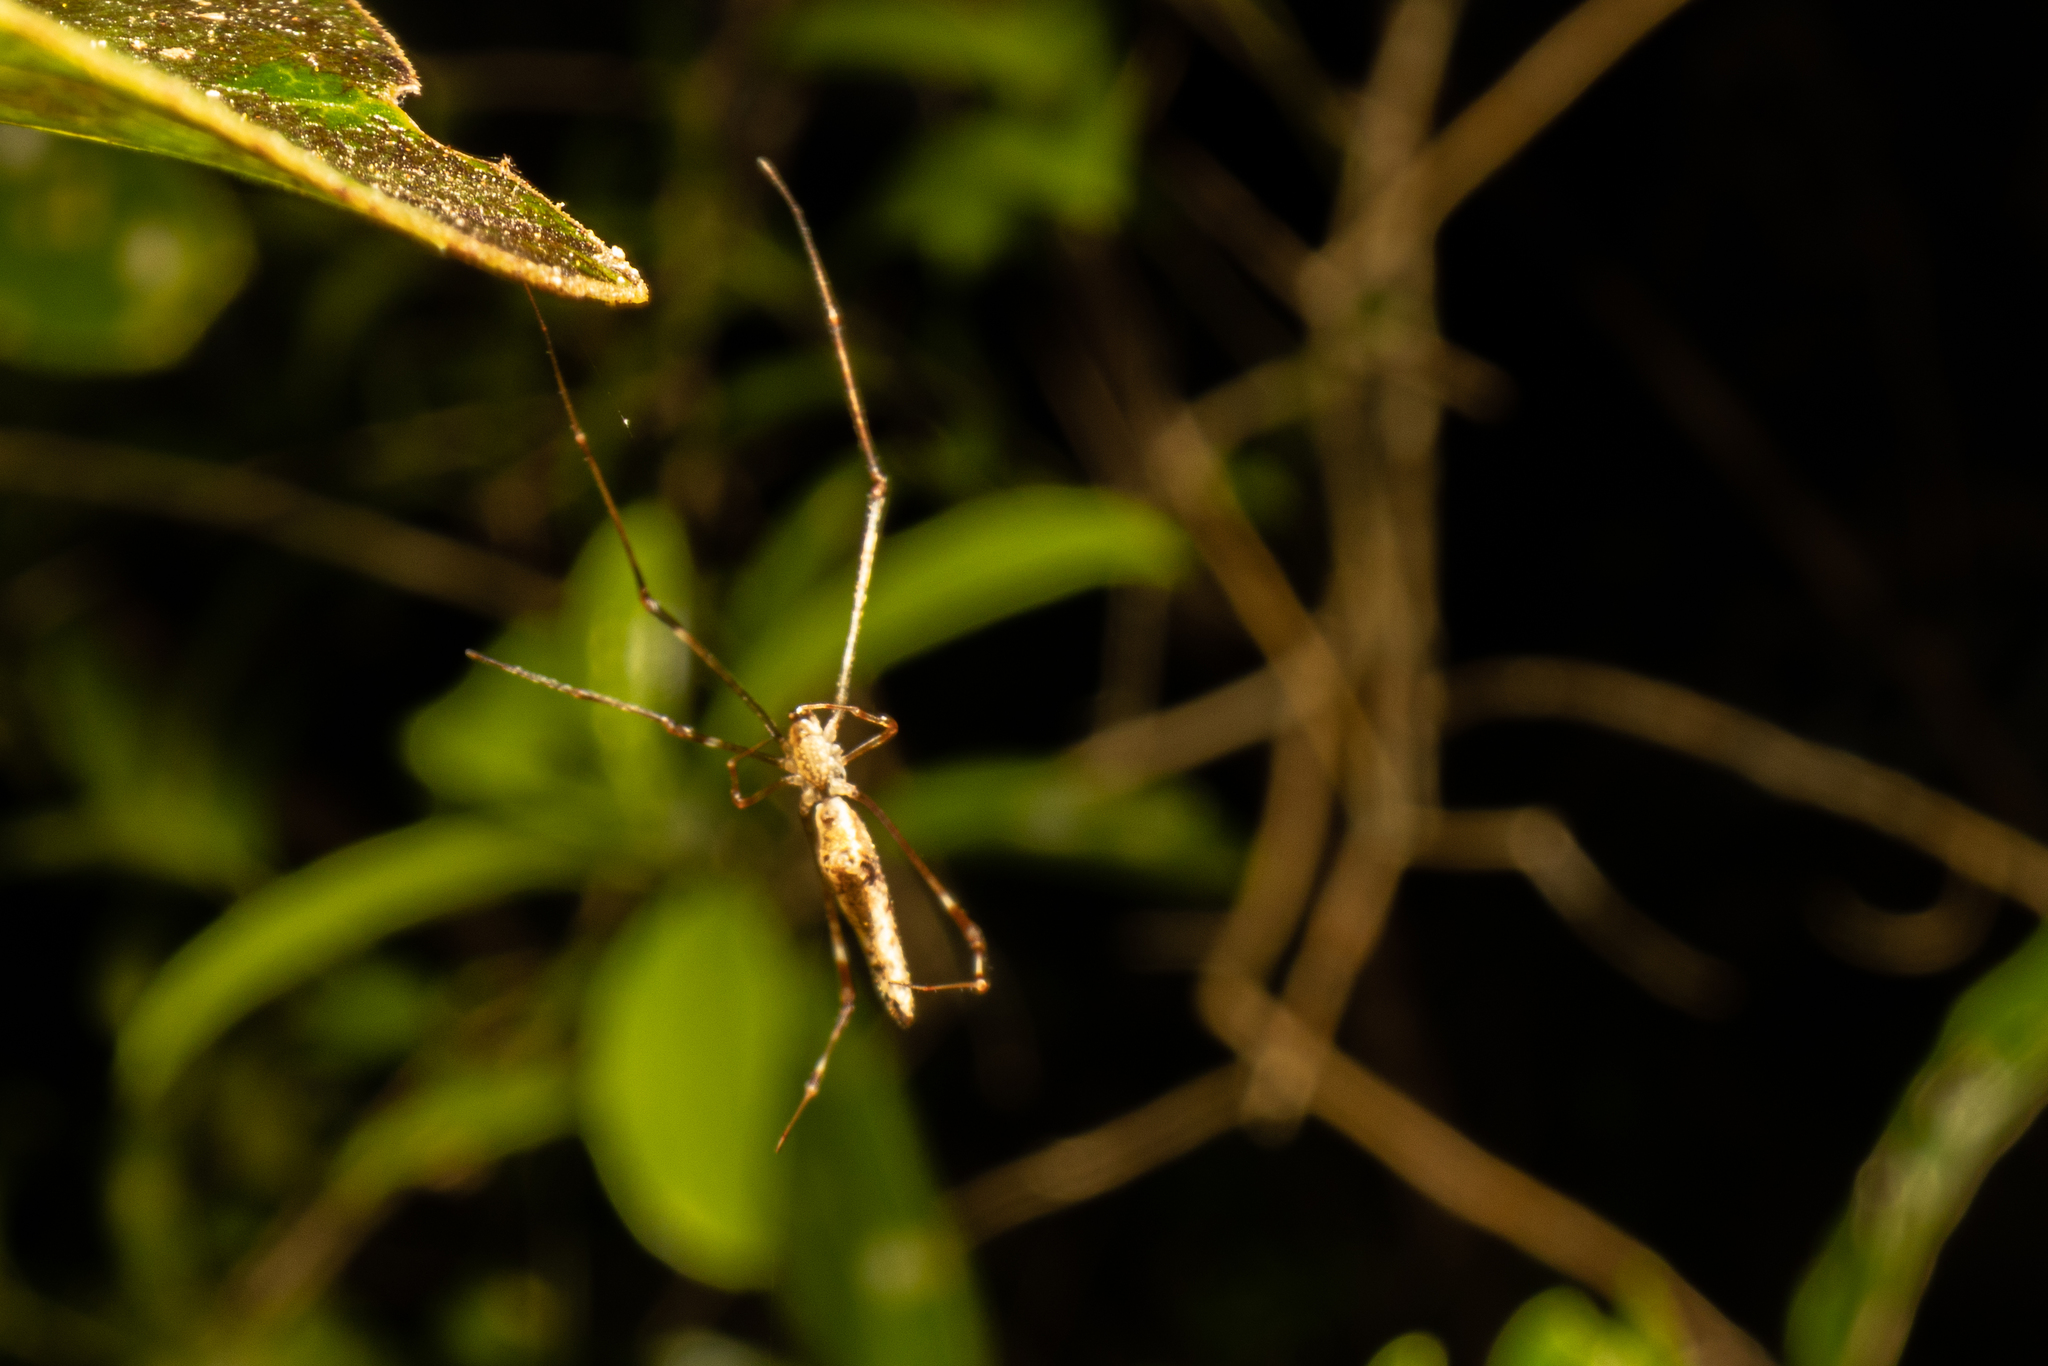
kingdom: Animalia
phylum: Arthropoda
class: Arachnida
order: Araneae
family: Theridiidae
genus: Rhomphaea
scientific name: Rhomphaea urquharti
